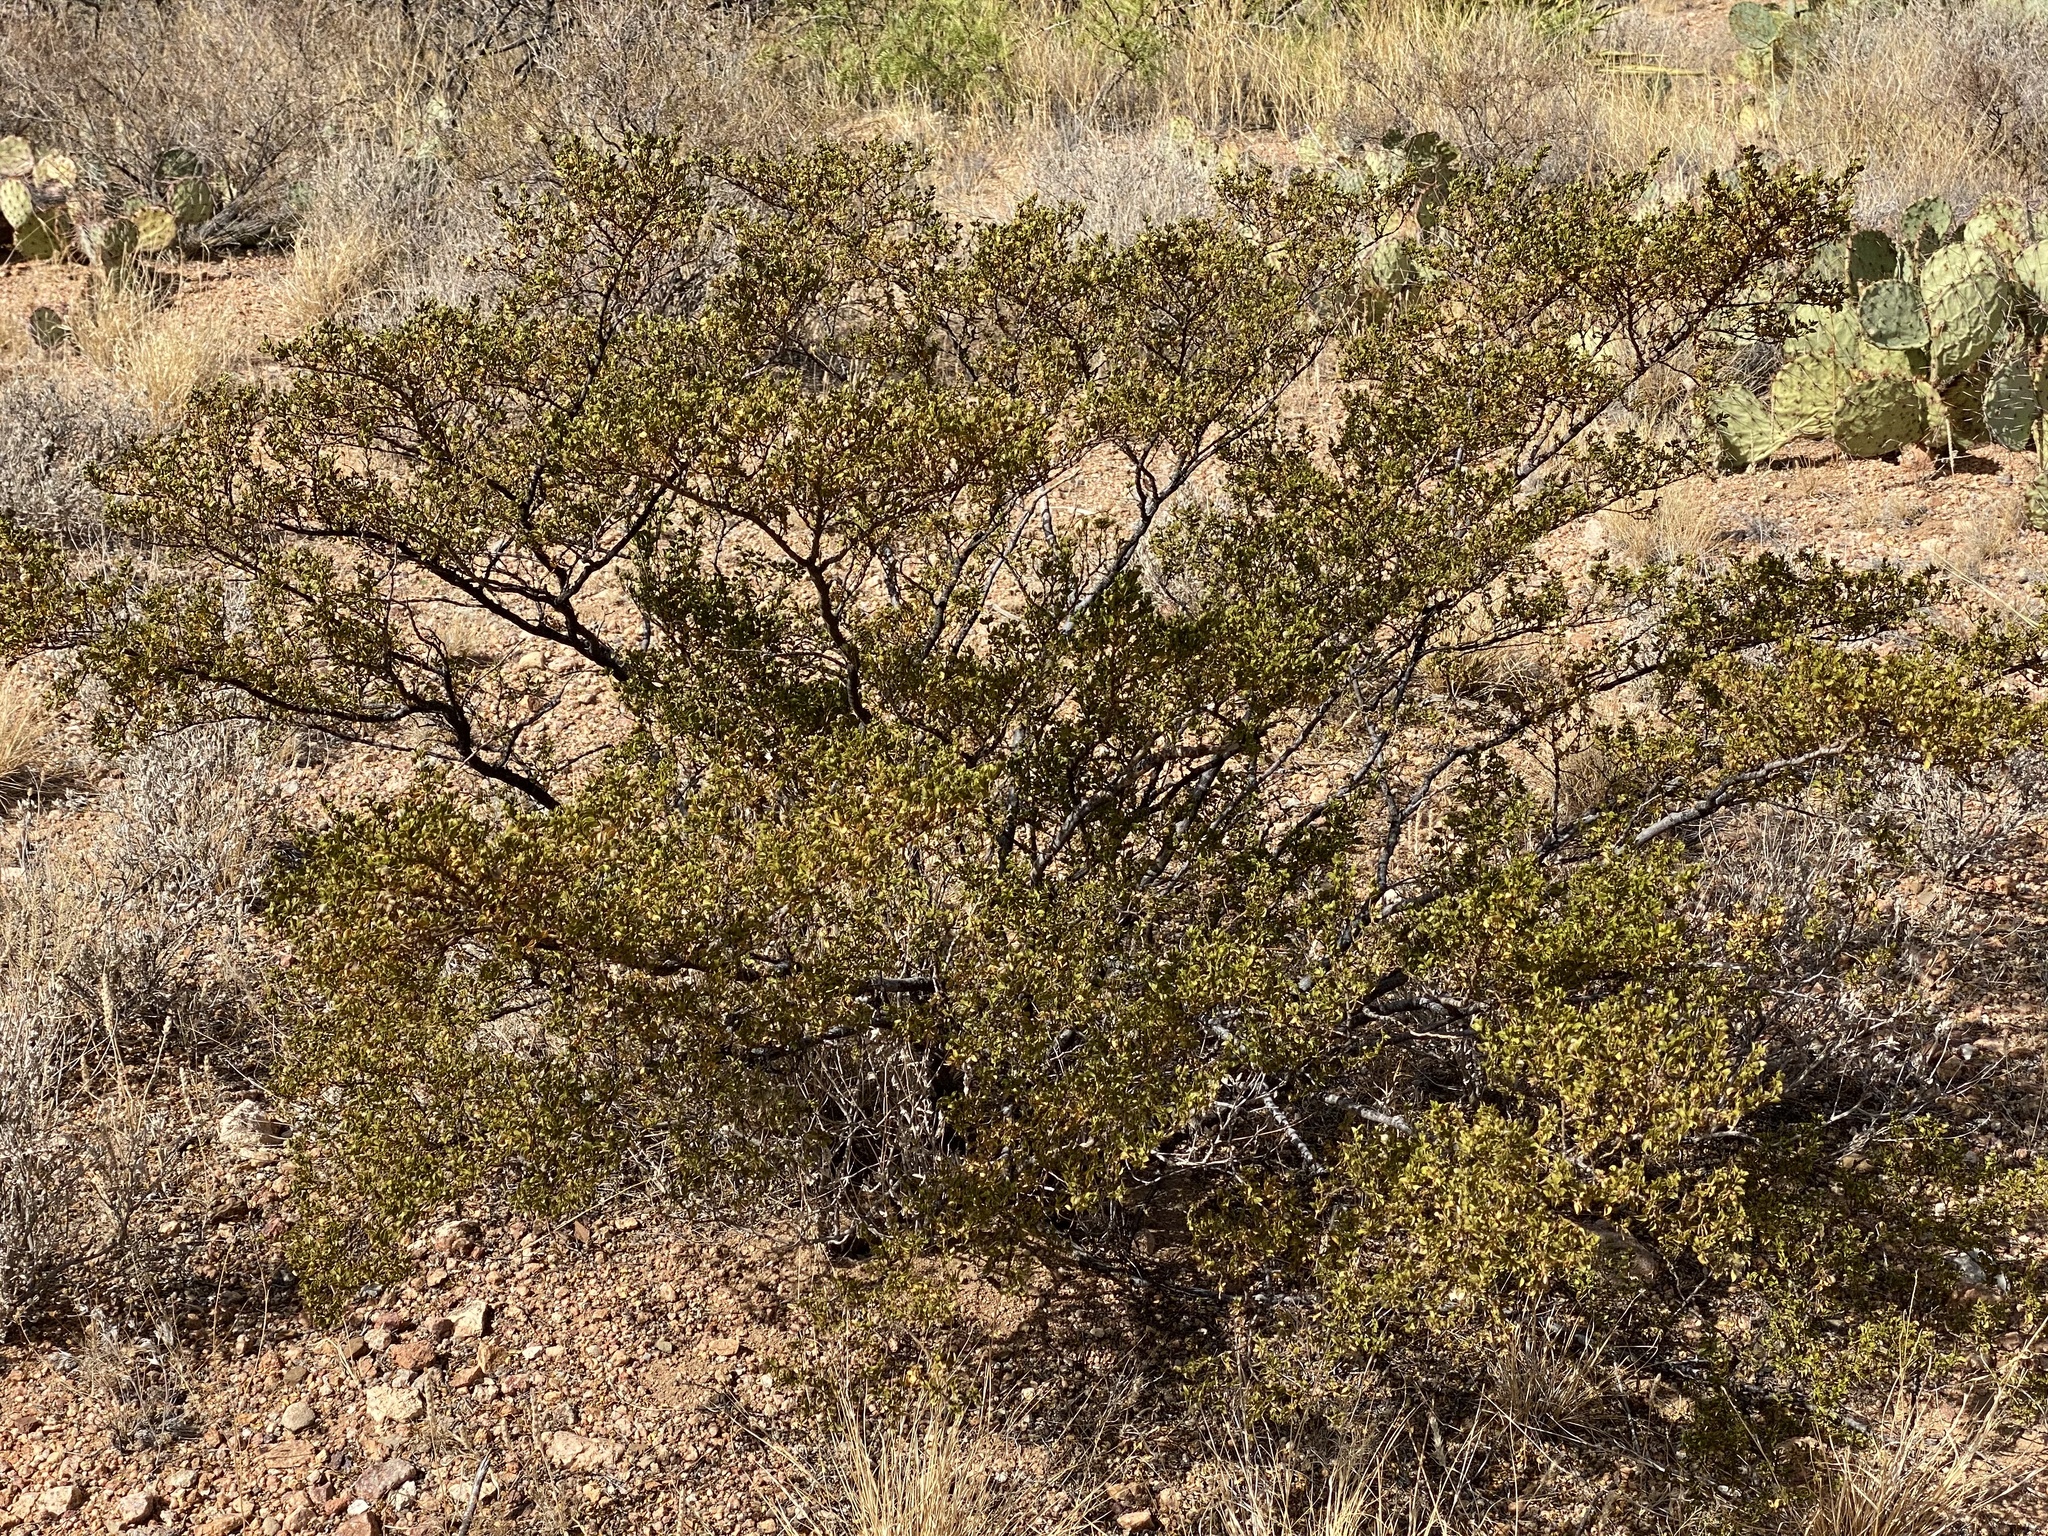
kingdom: Plantae
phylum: Tracheophyta
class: Magnoliopsida
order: Zygophyllales
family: Zygophyllaceae
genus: Larrea
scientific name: Larrea tridentata
